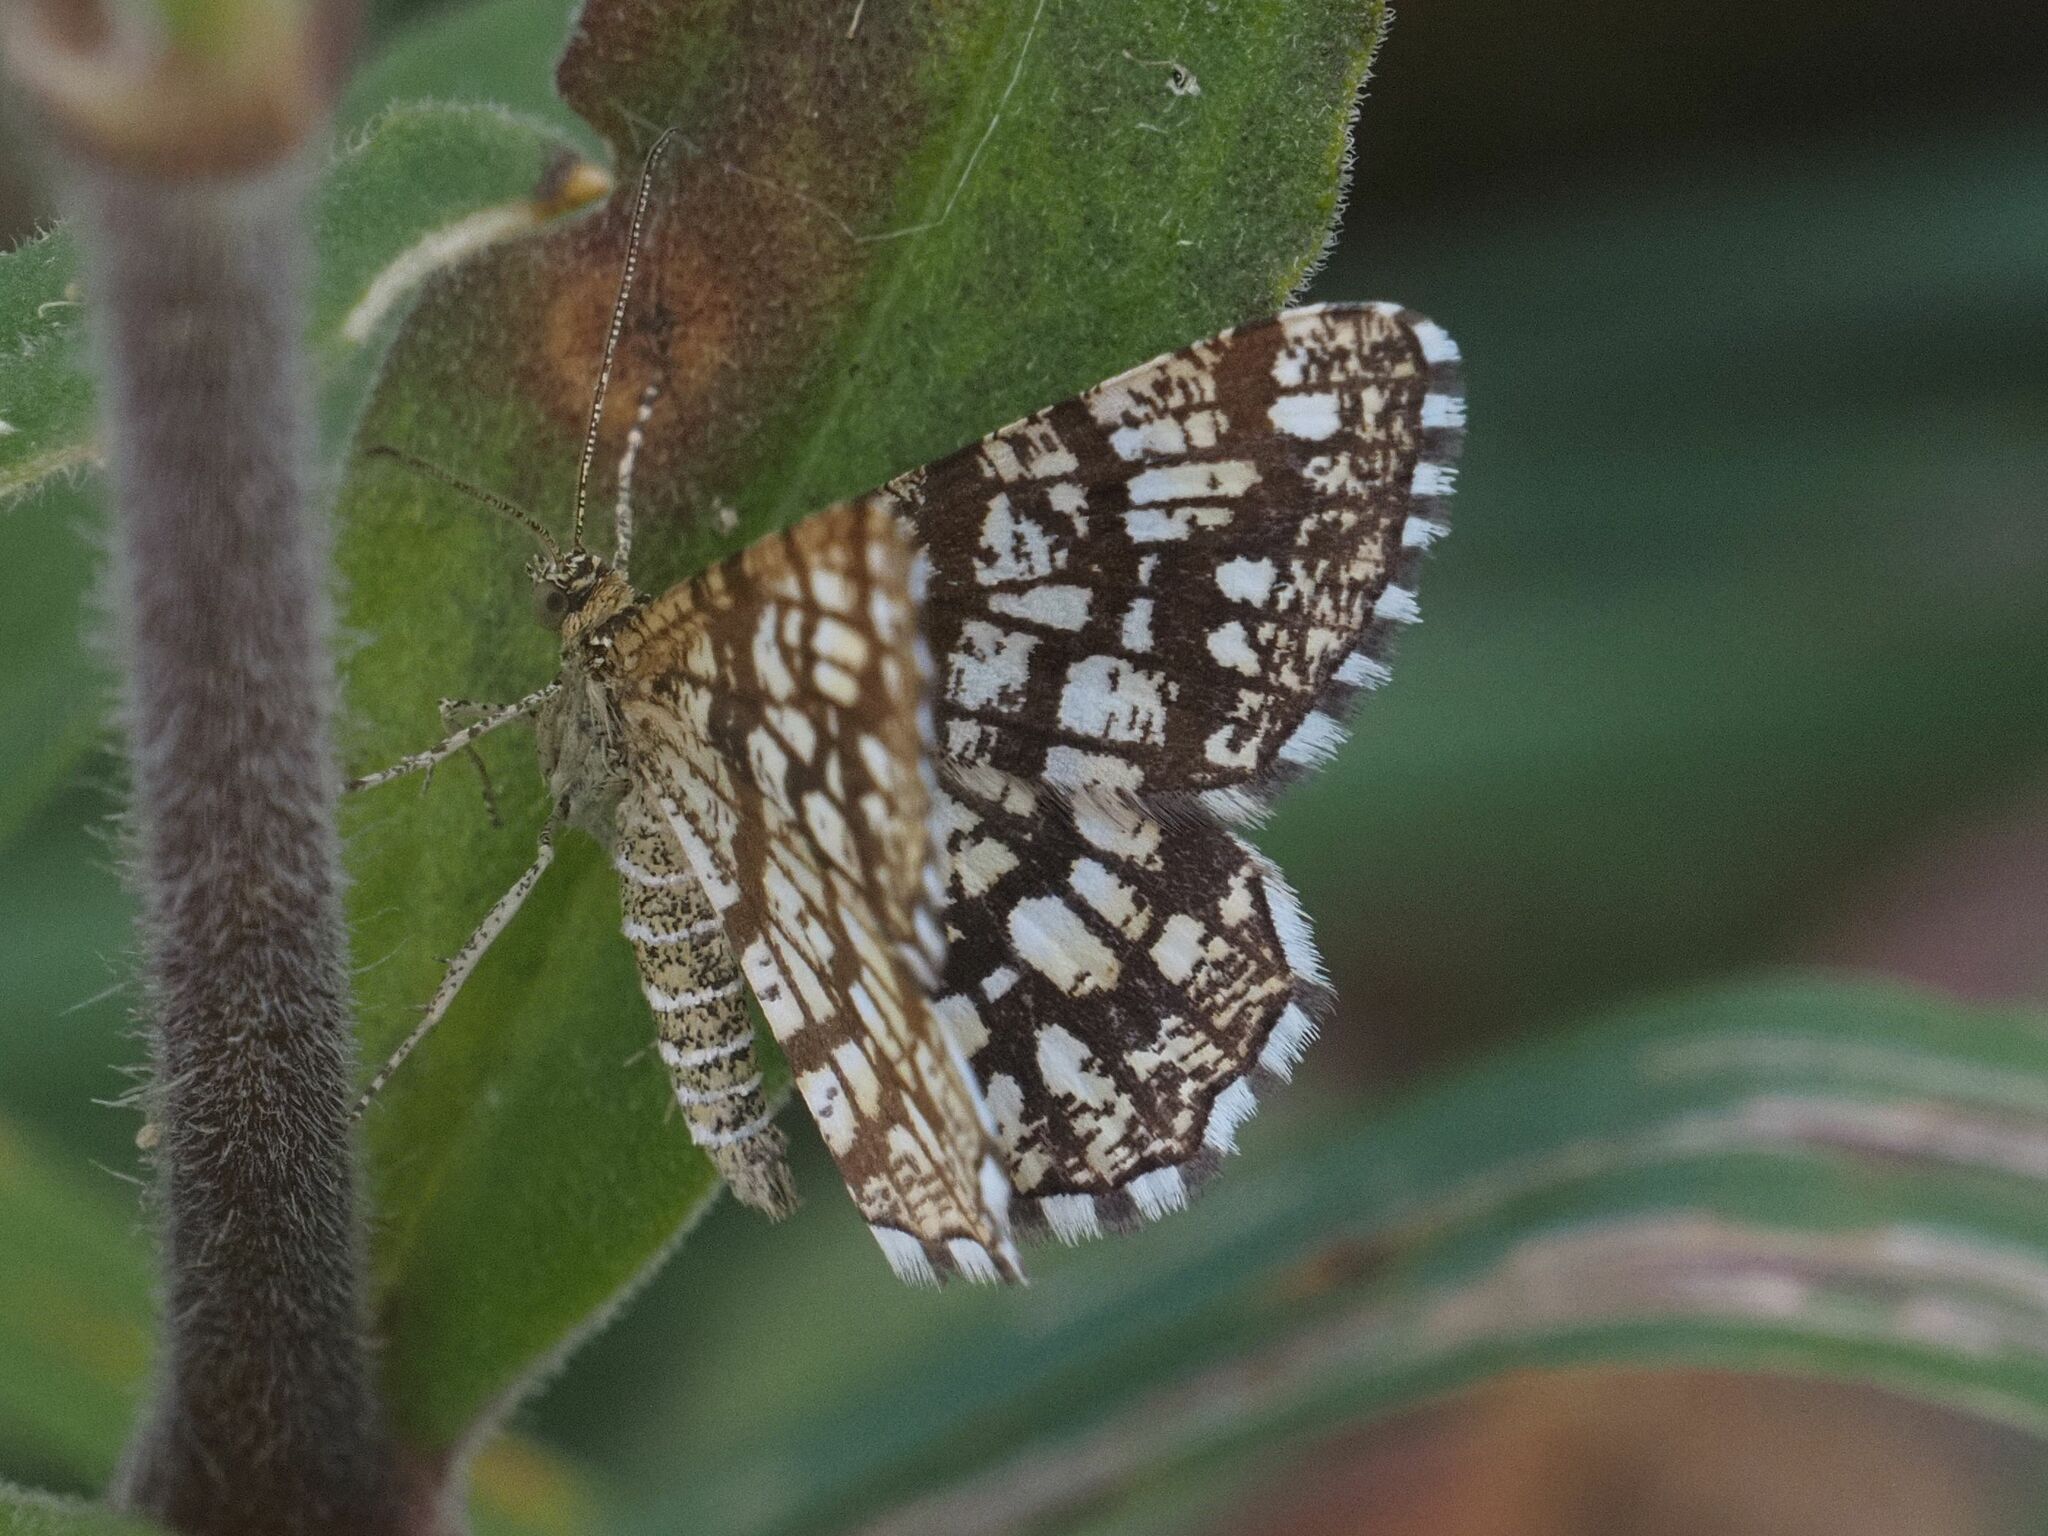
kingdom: Animalia
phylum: Arthropoda
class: Insecta
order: Lepidoptera
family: Geometridae
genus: Chiasmia
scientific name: Chiasmia clathrata
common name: Latticed heath
